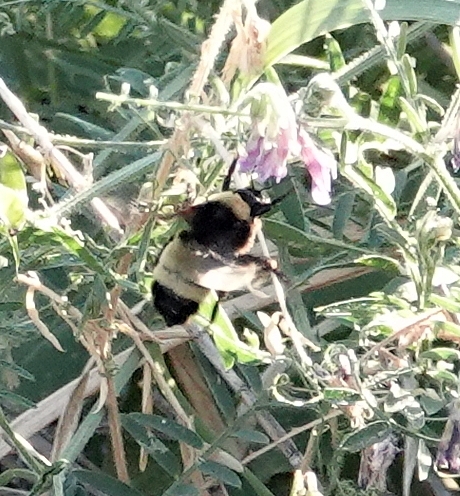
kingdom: Animalia
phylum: Arthropoda
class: Insecta
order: Hymenoptera
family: Apidae
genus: Bombus
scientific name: Bombus pensylvanicus
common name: Bumble bee
